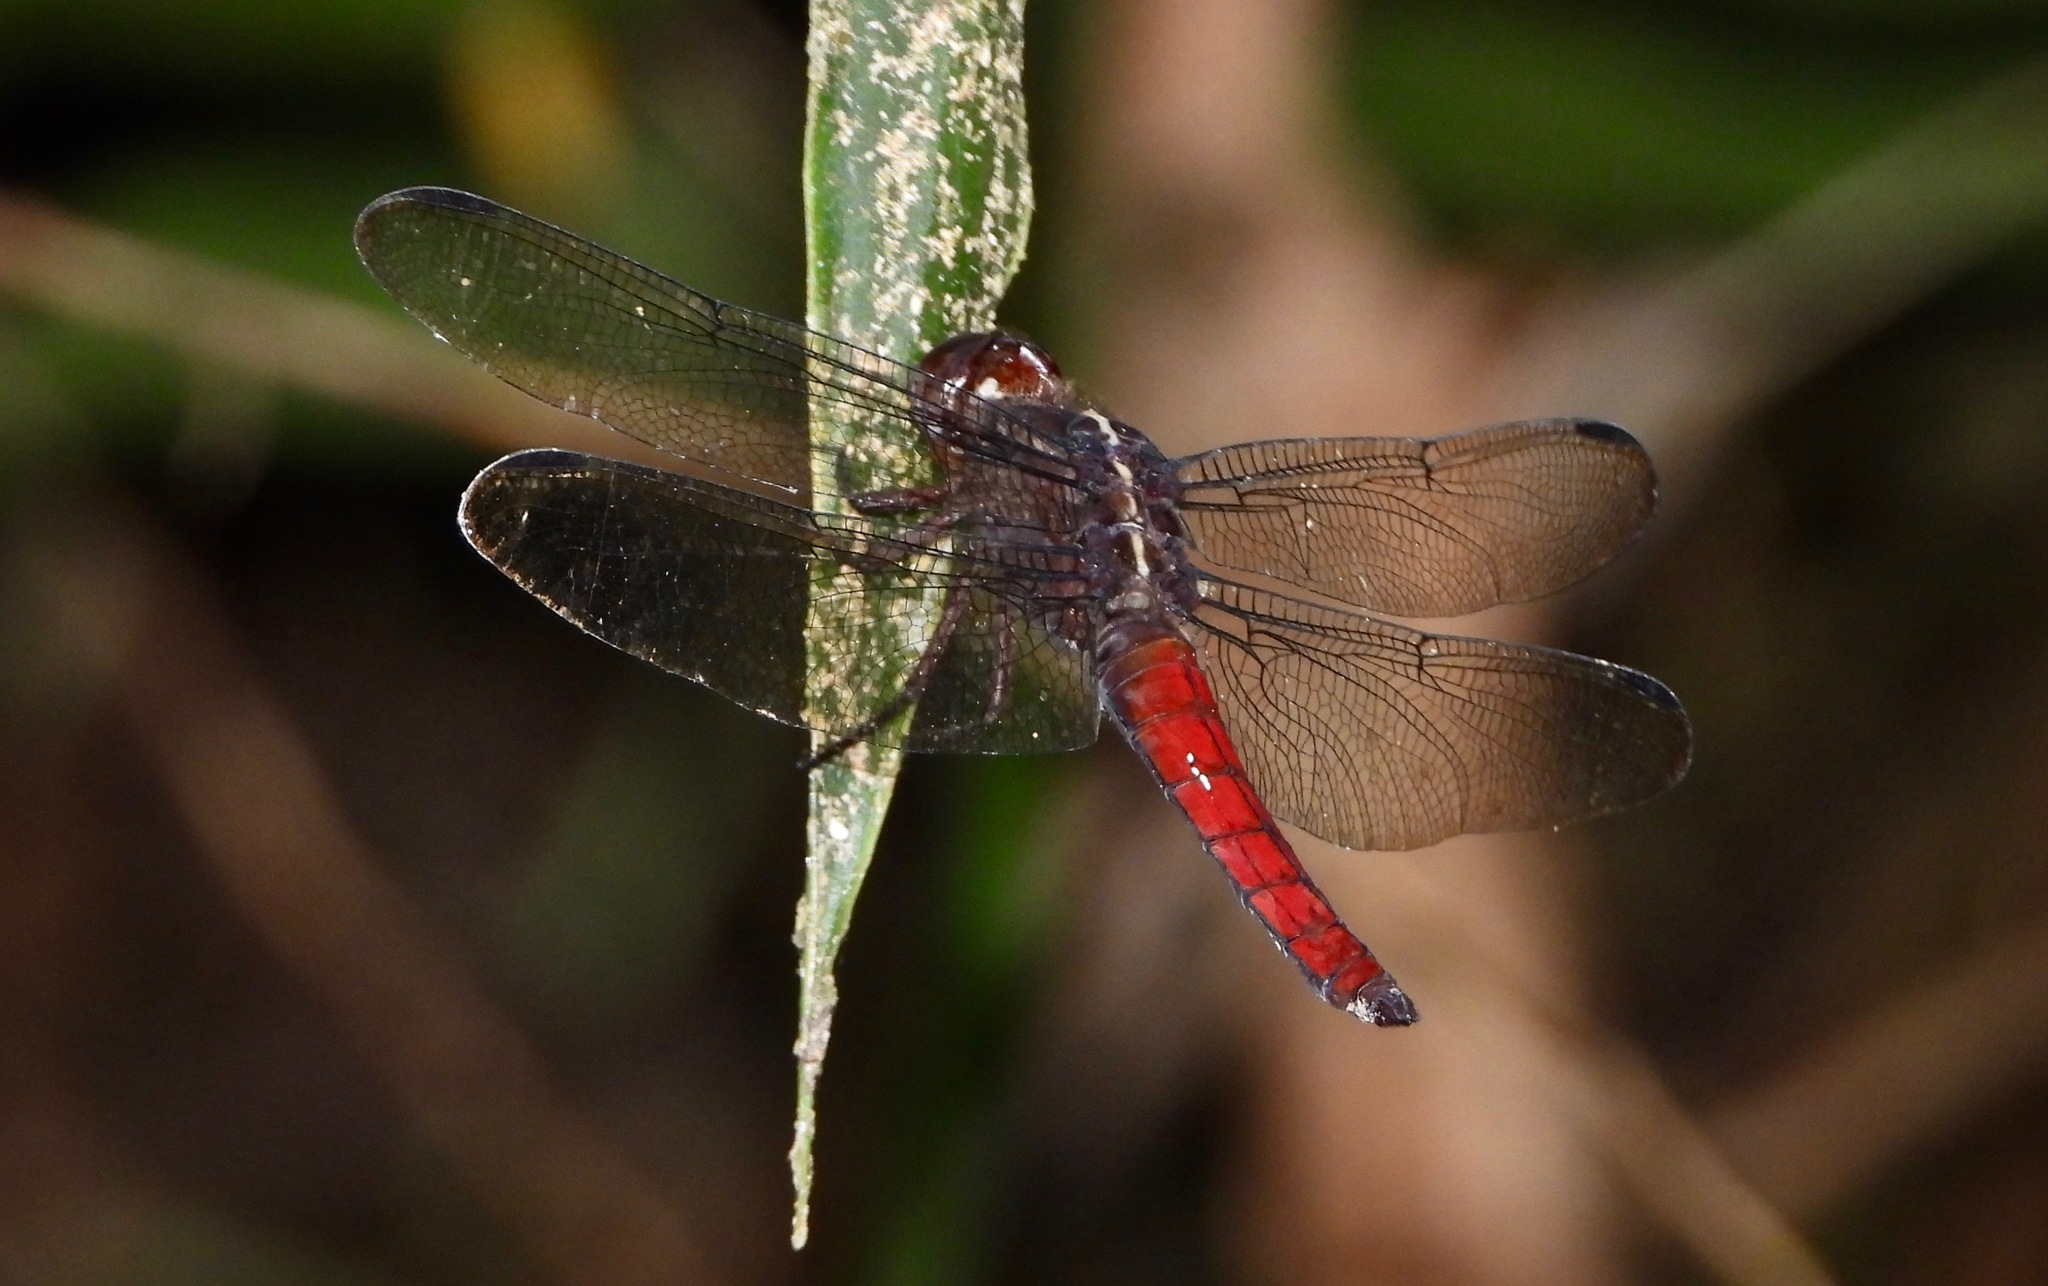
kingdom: Animalia
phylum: Arthropoda
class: Insecta
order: Odonata
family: Libellulidae
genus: Libellula
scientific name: Libellula herculea
